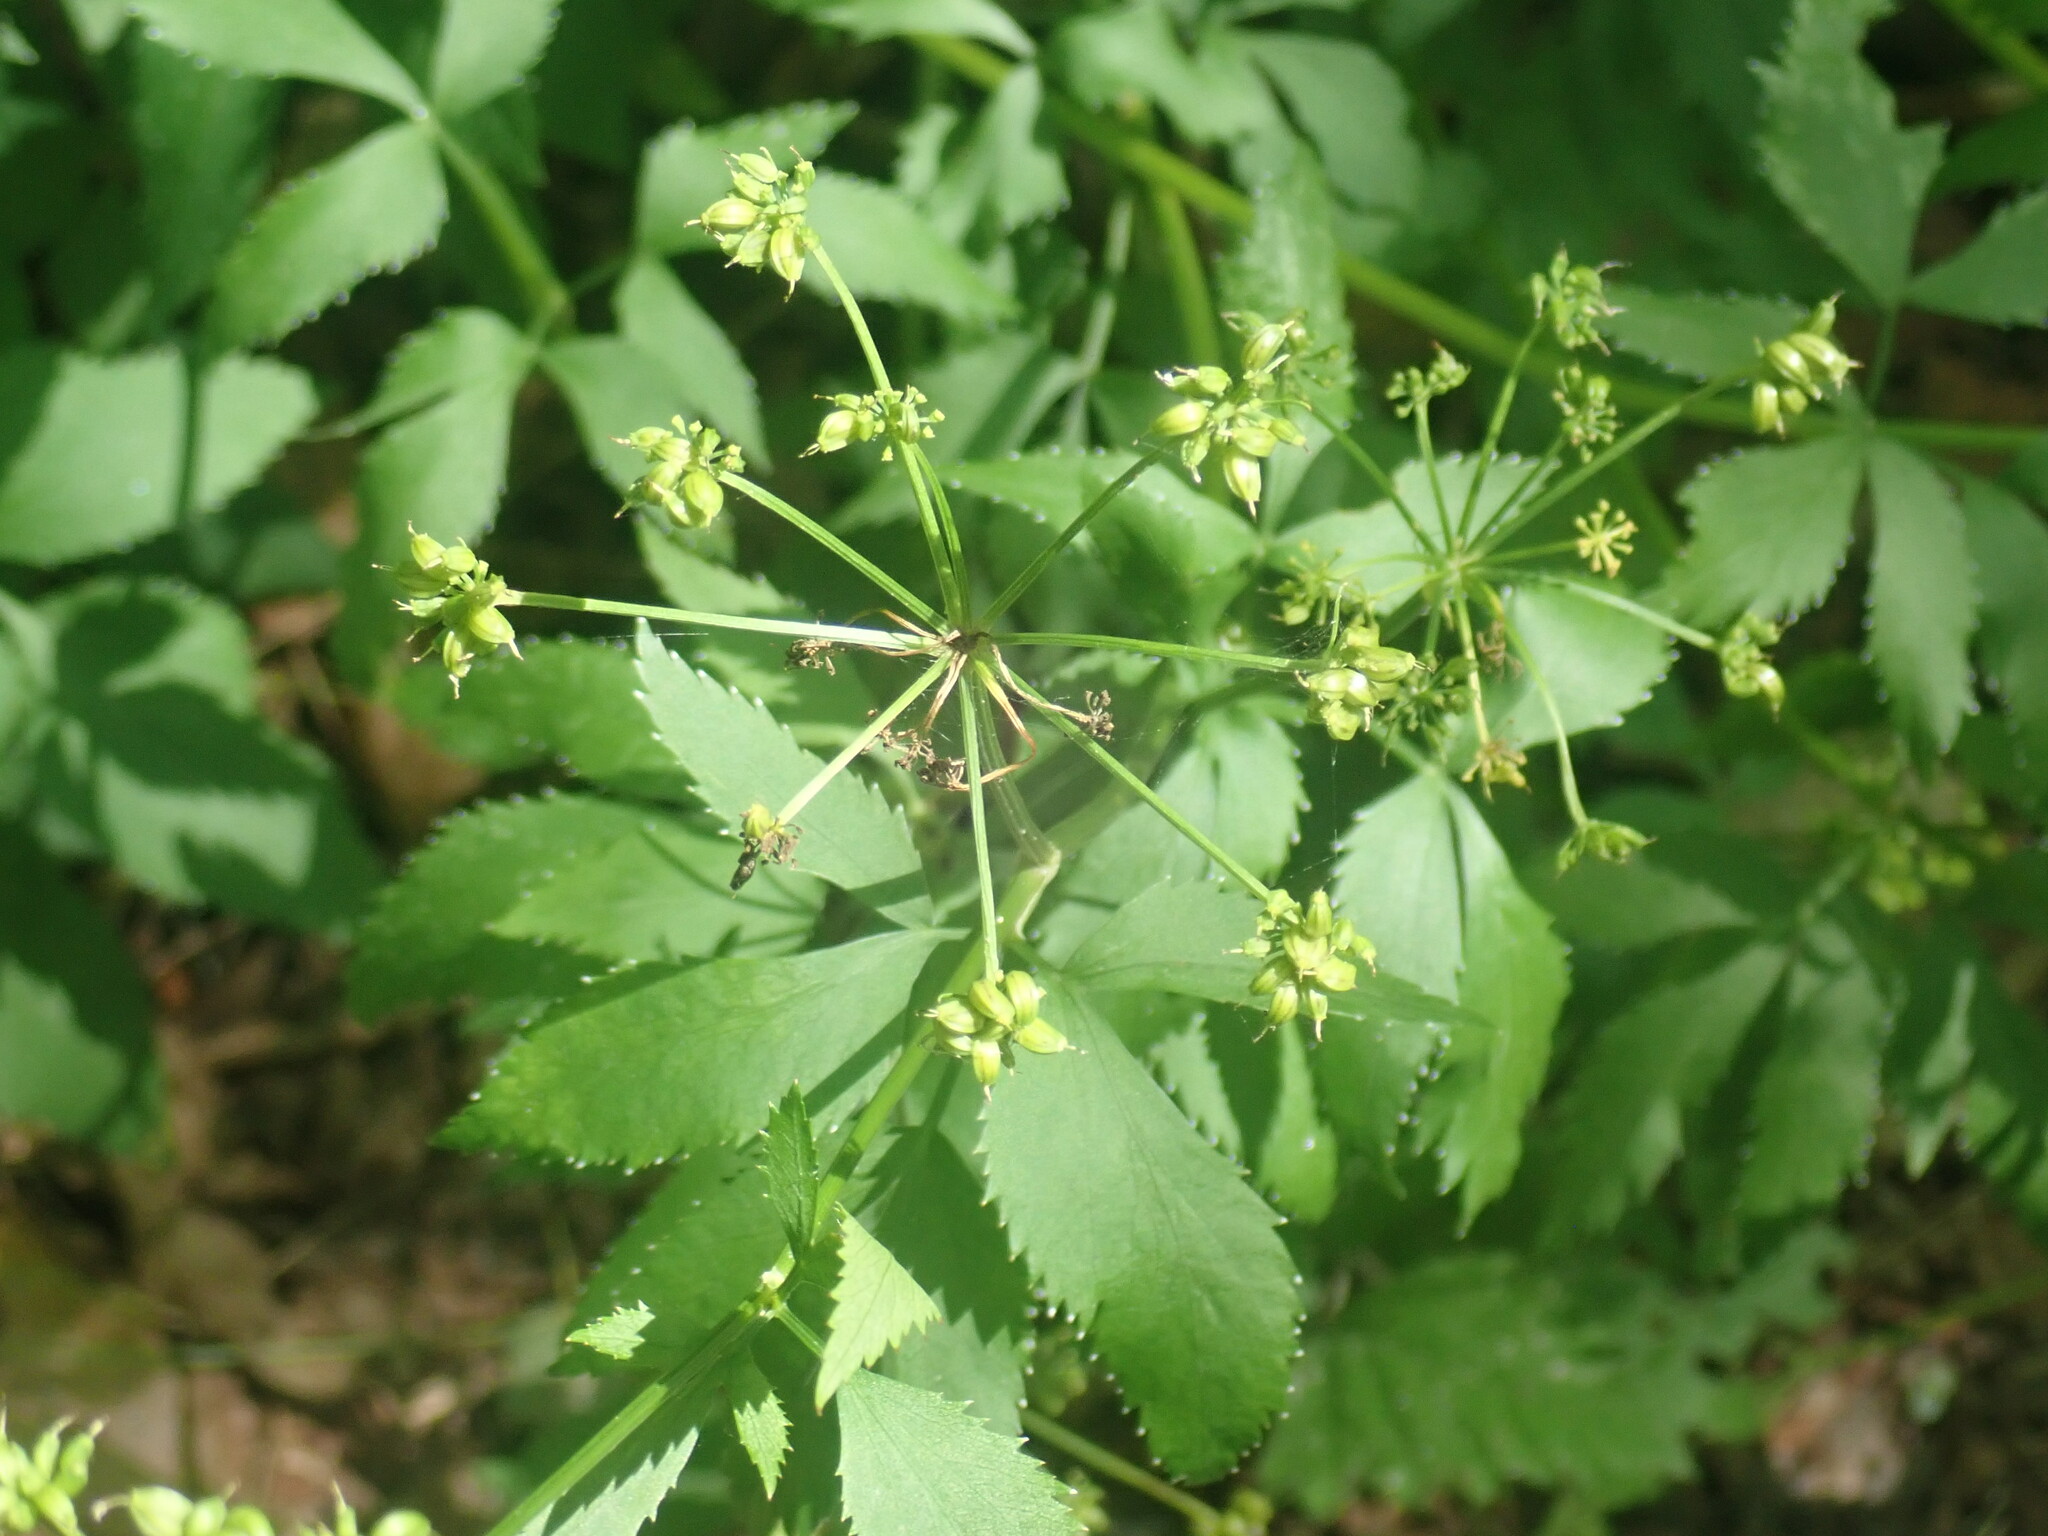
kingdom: Plantae
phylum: Tracheophyta
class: Magnoliopsida
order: Apiales
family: Apiaceae
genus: Zizia
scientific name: Zizia aurea
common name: Golden alexanders
